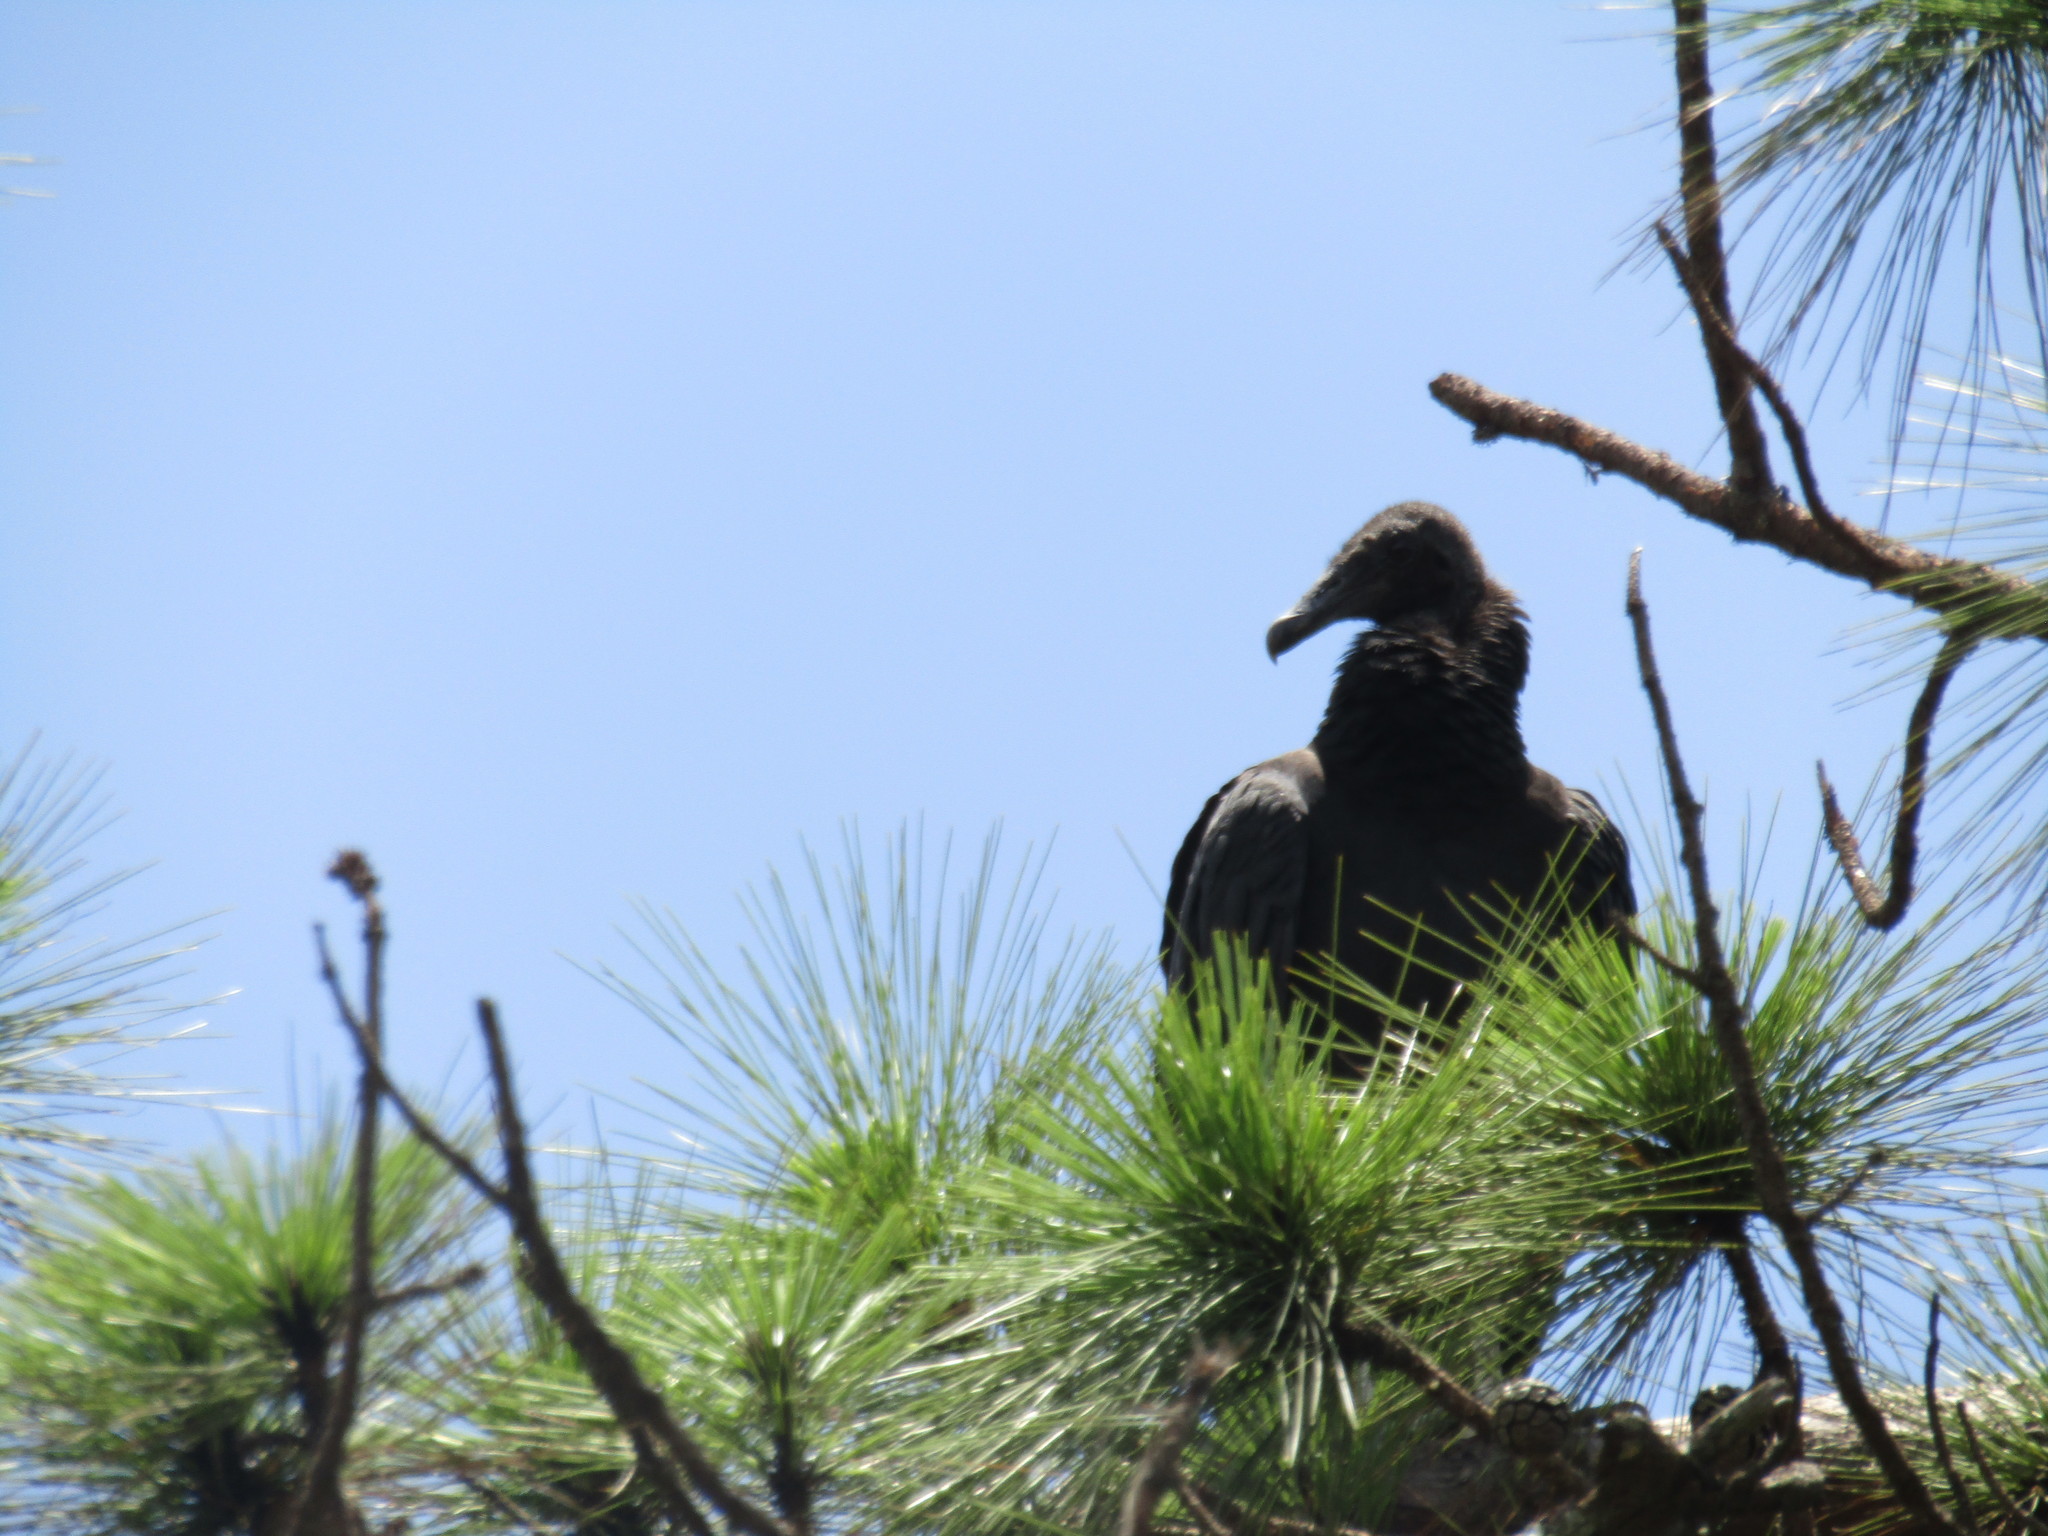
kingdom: Animalia
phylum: Chordata
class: Aves
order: Accipitriformes
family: Cathartidae
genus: Coragyps
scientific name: Coragyps atratus
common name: Black vulture
